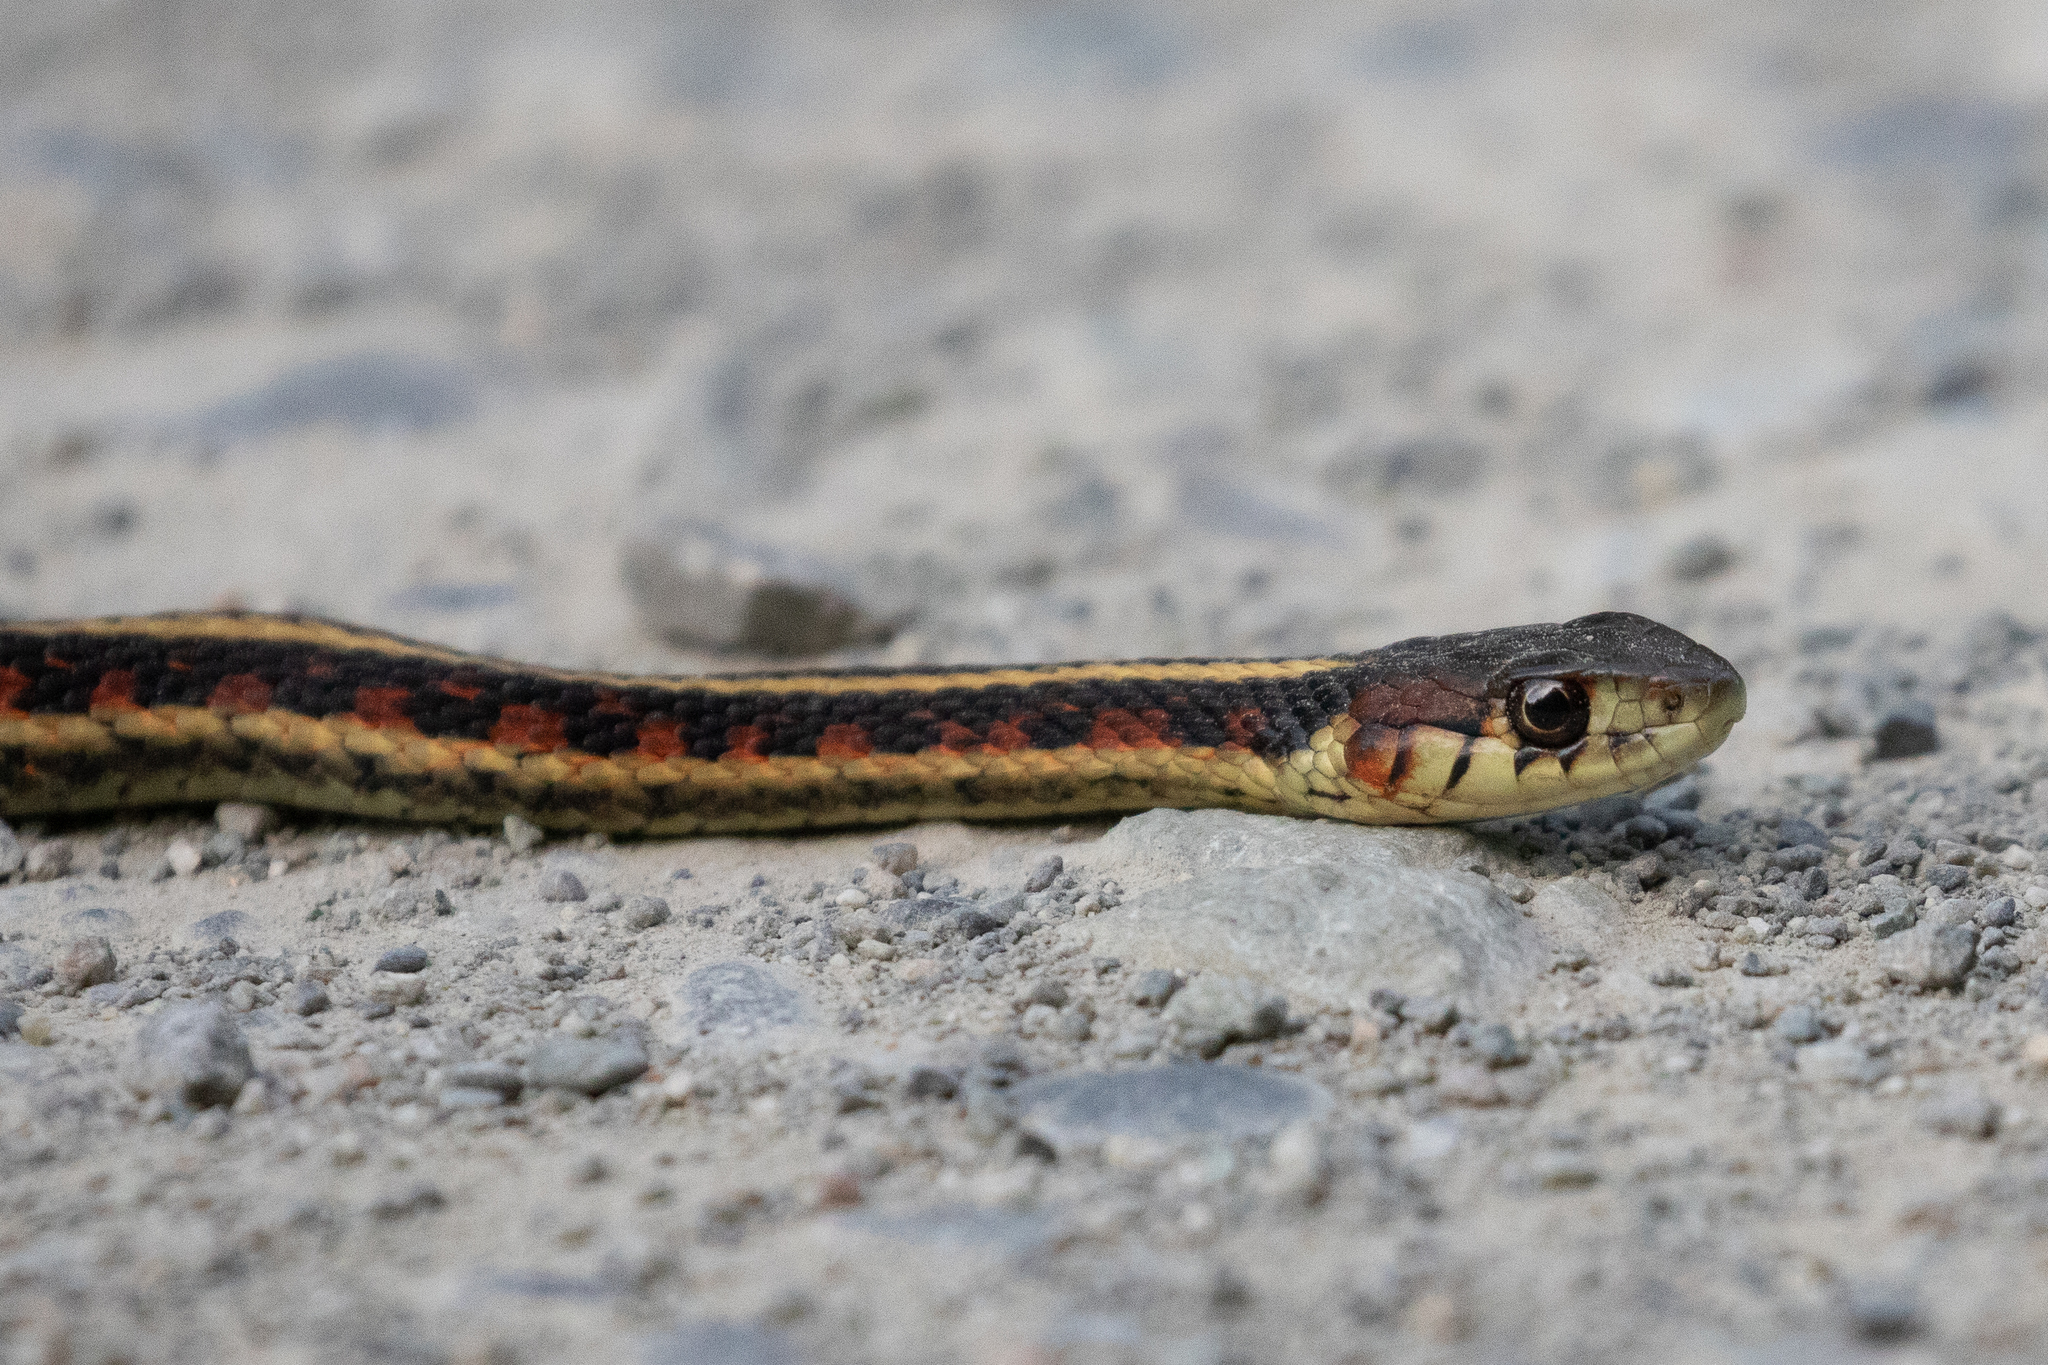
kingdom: Animalia
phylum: Chordata
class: Squamata
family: Colubridae
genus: Thamnophis
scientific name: Thamnophis sirtalis
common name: Common garter snake
